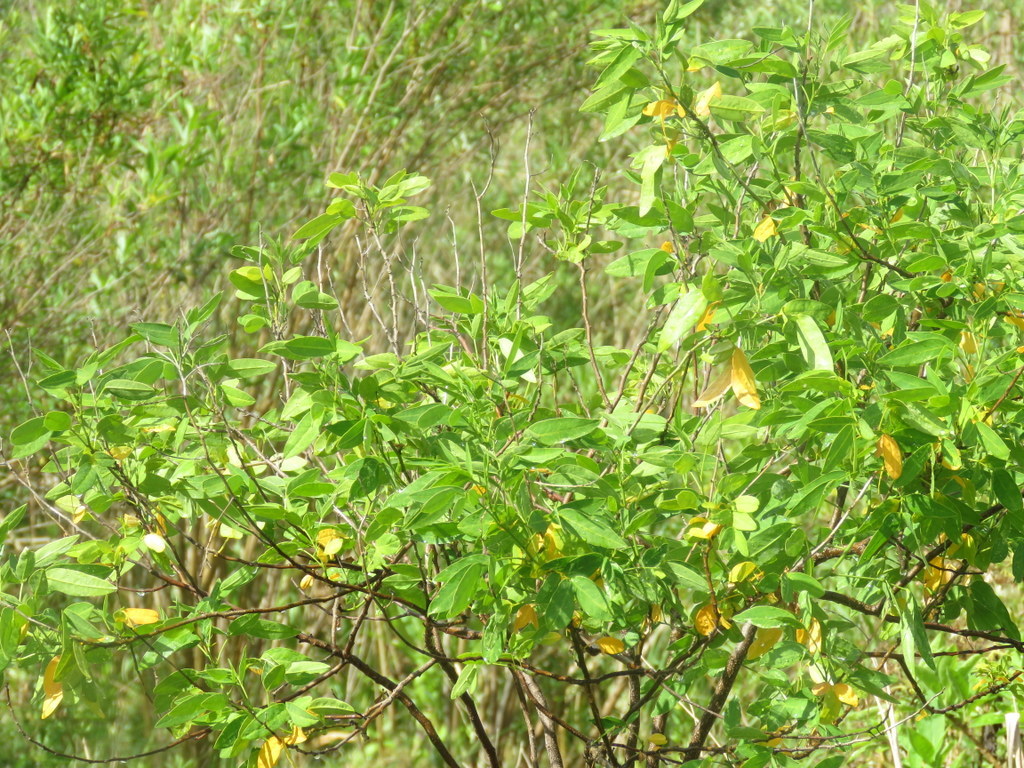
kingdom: Plantae
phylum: Tracheophyta
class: Magnoliopsida
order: Fabales
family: Fabaceae
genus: Senna
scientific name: Senna corymbosa
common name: Argentine senna
